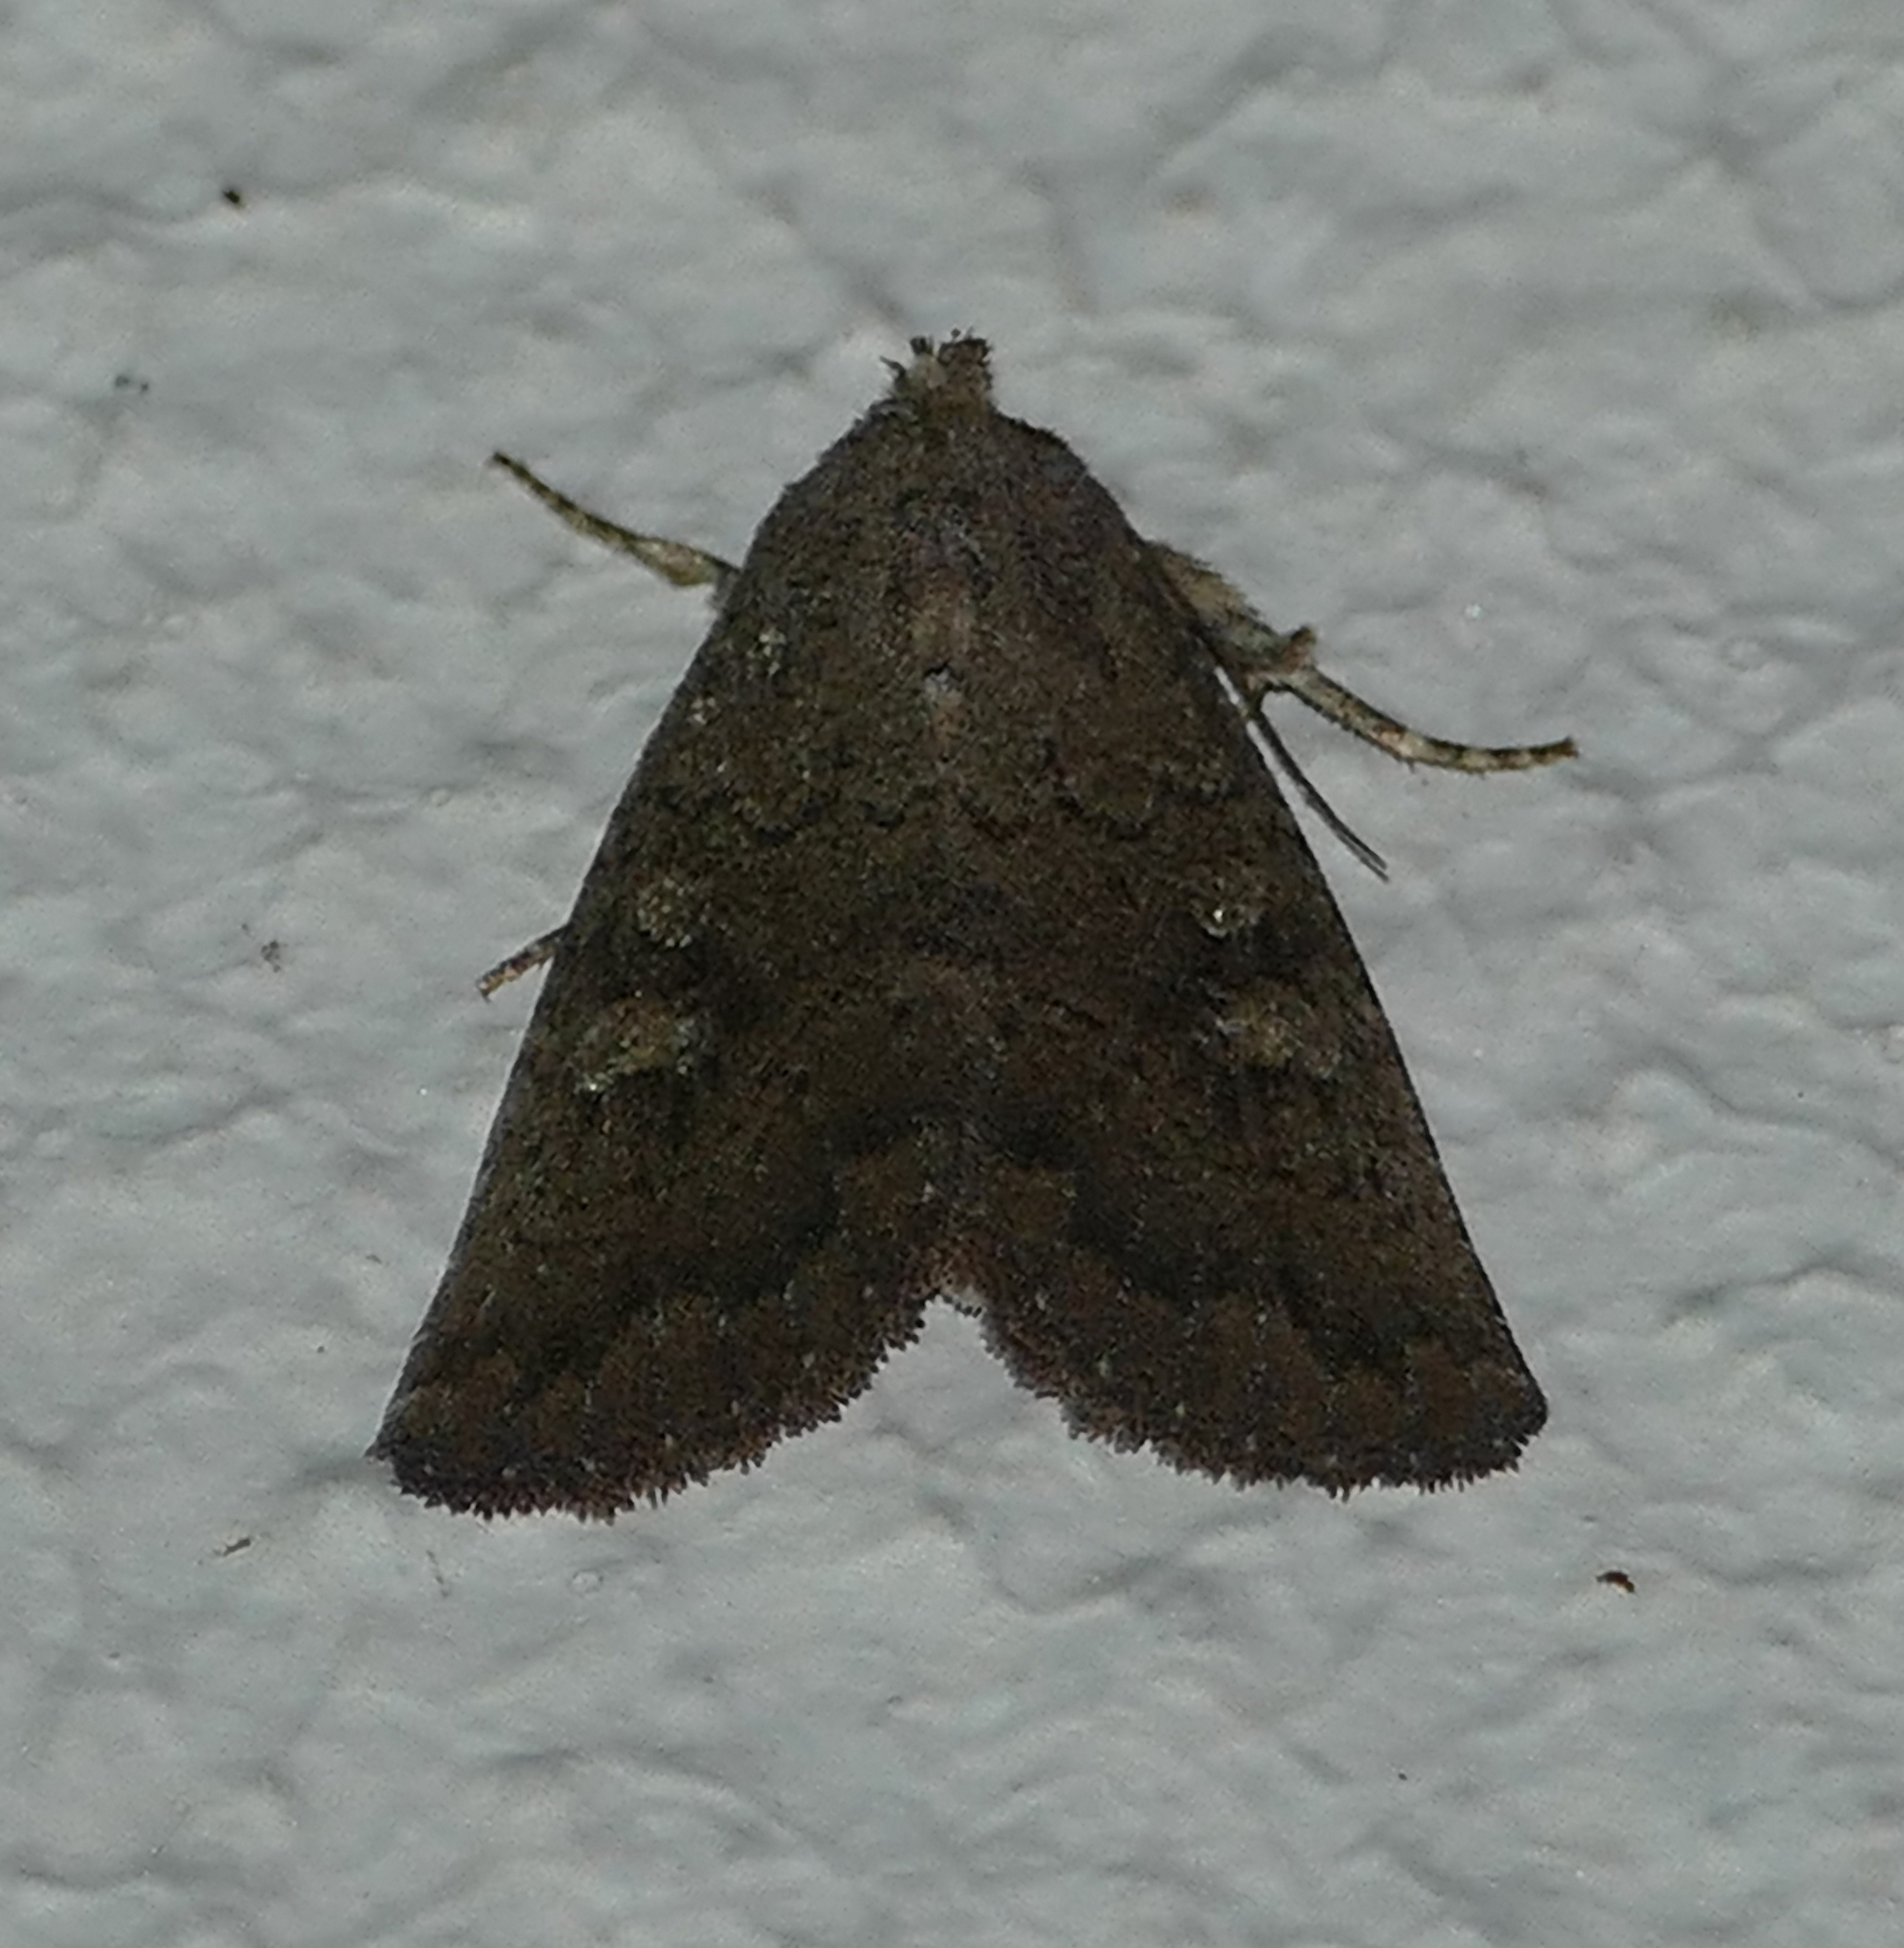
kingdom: Animalia
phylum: Arthropoda
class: Insecta
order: Lepidoptera
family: Noctuidae
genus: Condica
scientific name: Condica sutor
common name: Cobbler moth
